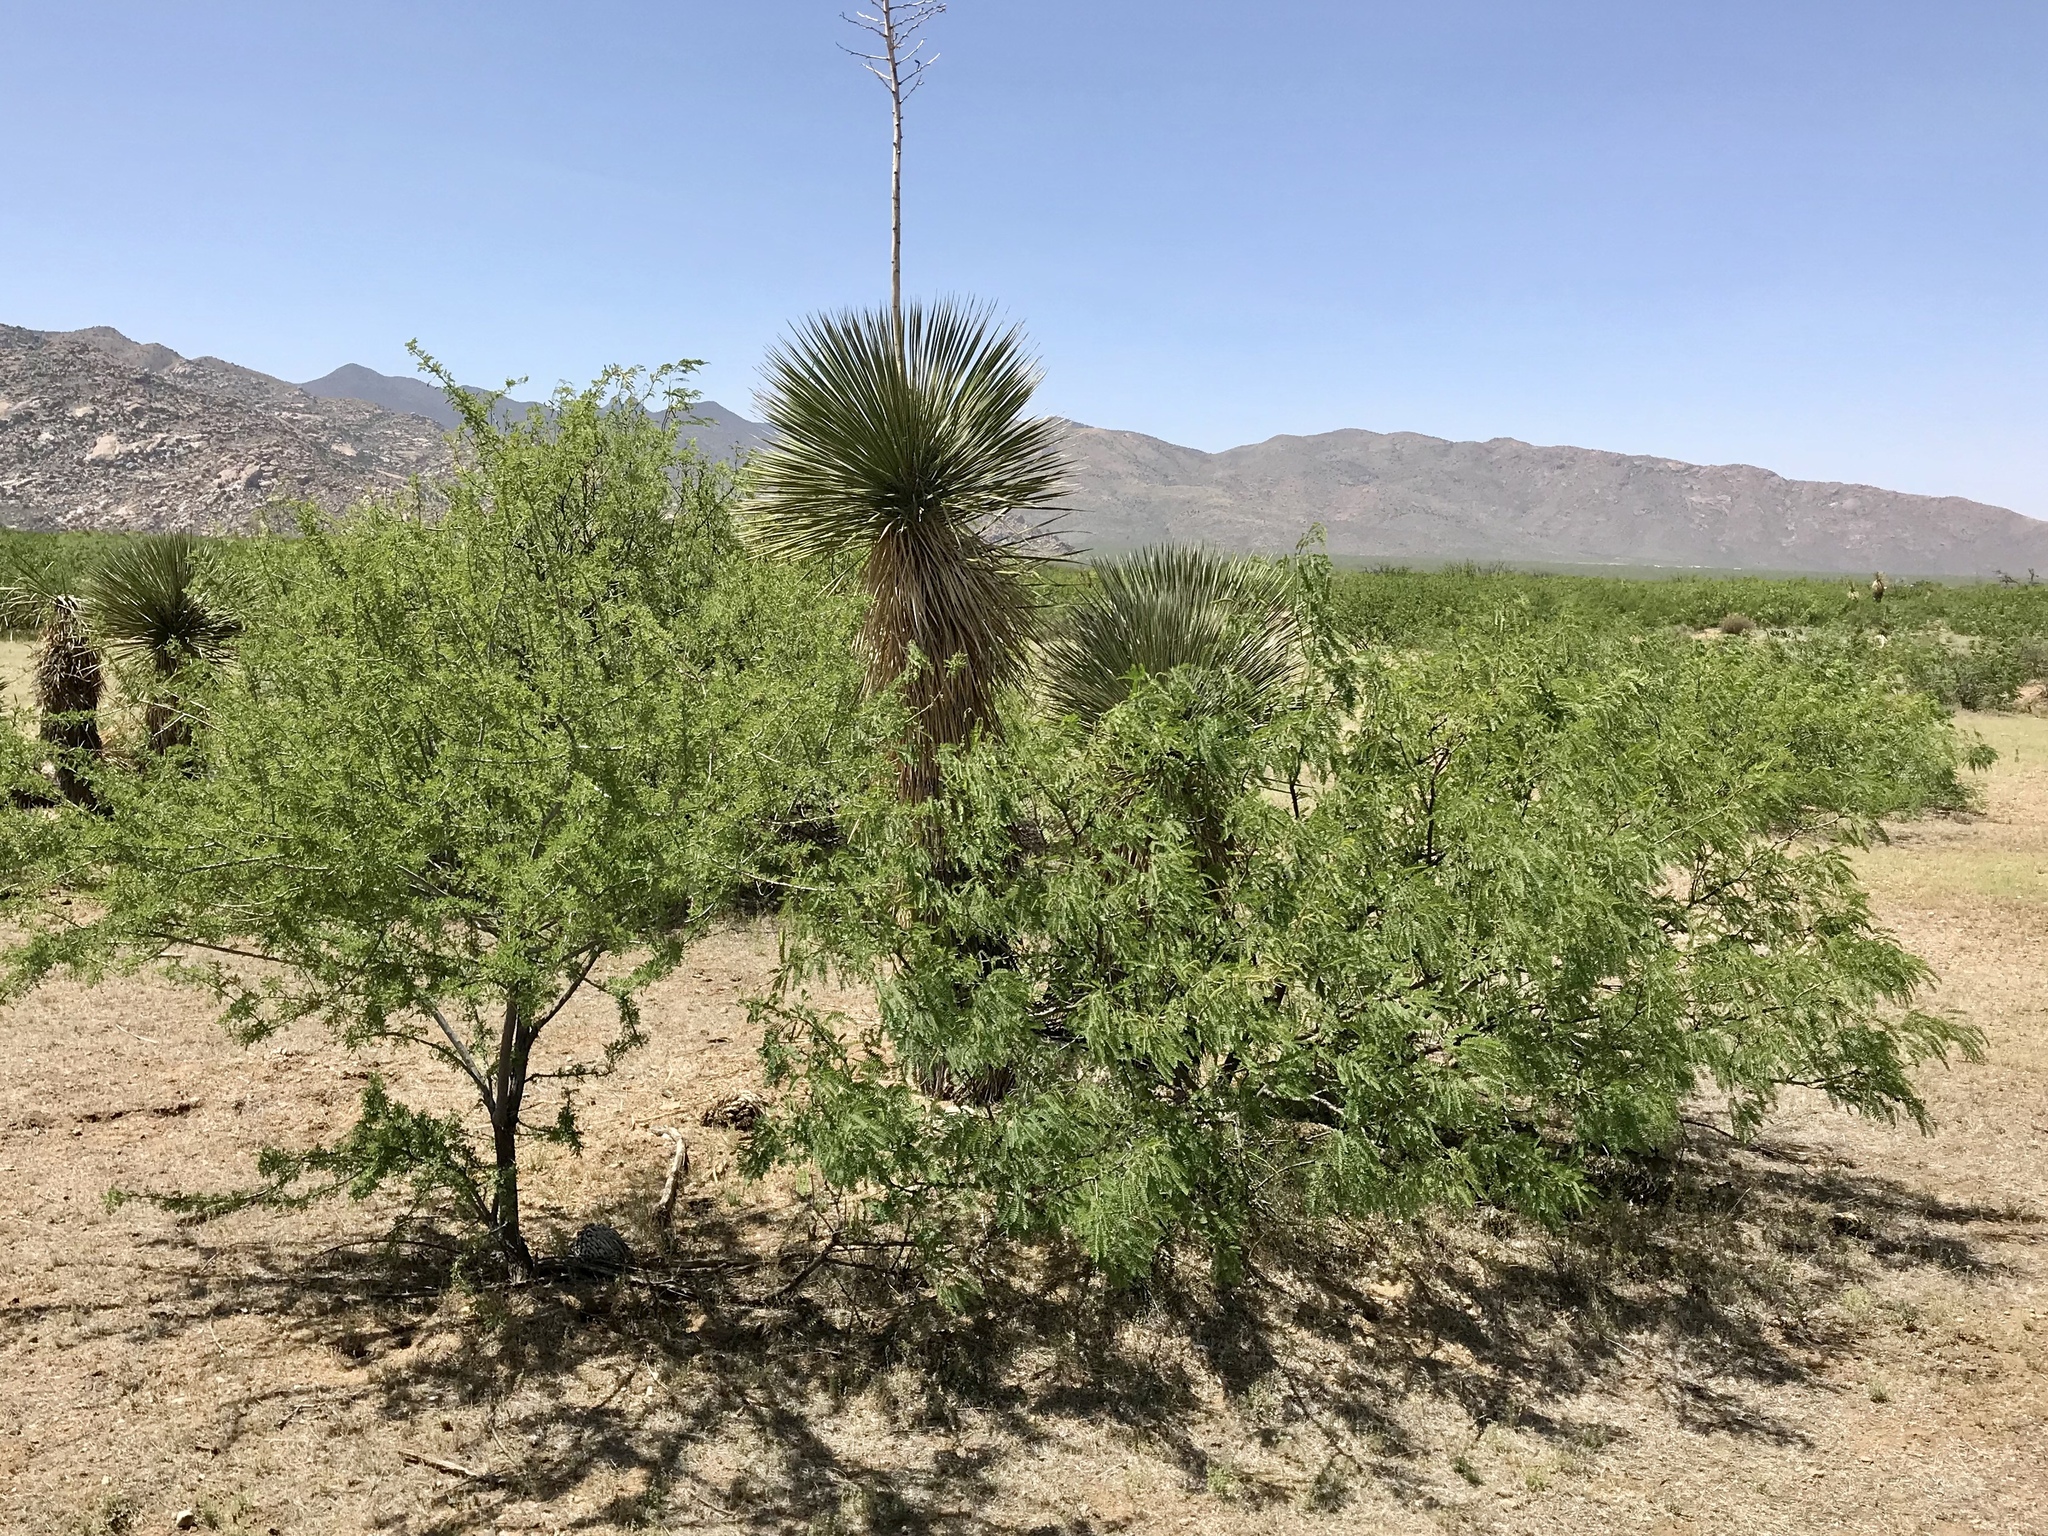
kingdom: Plantae
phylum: Tracheophyta
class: Magnoliopsida
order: Fabales
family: Fabaceae
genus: Prosopis
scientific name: Prosopis glandulosa
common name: Honey mesquite
